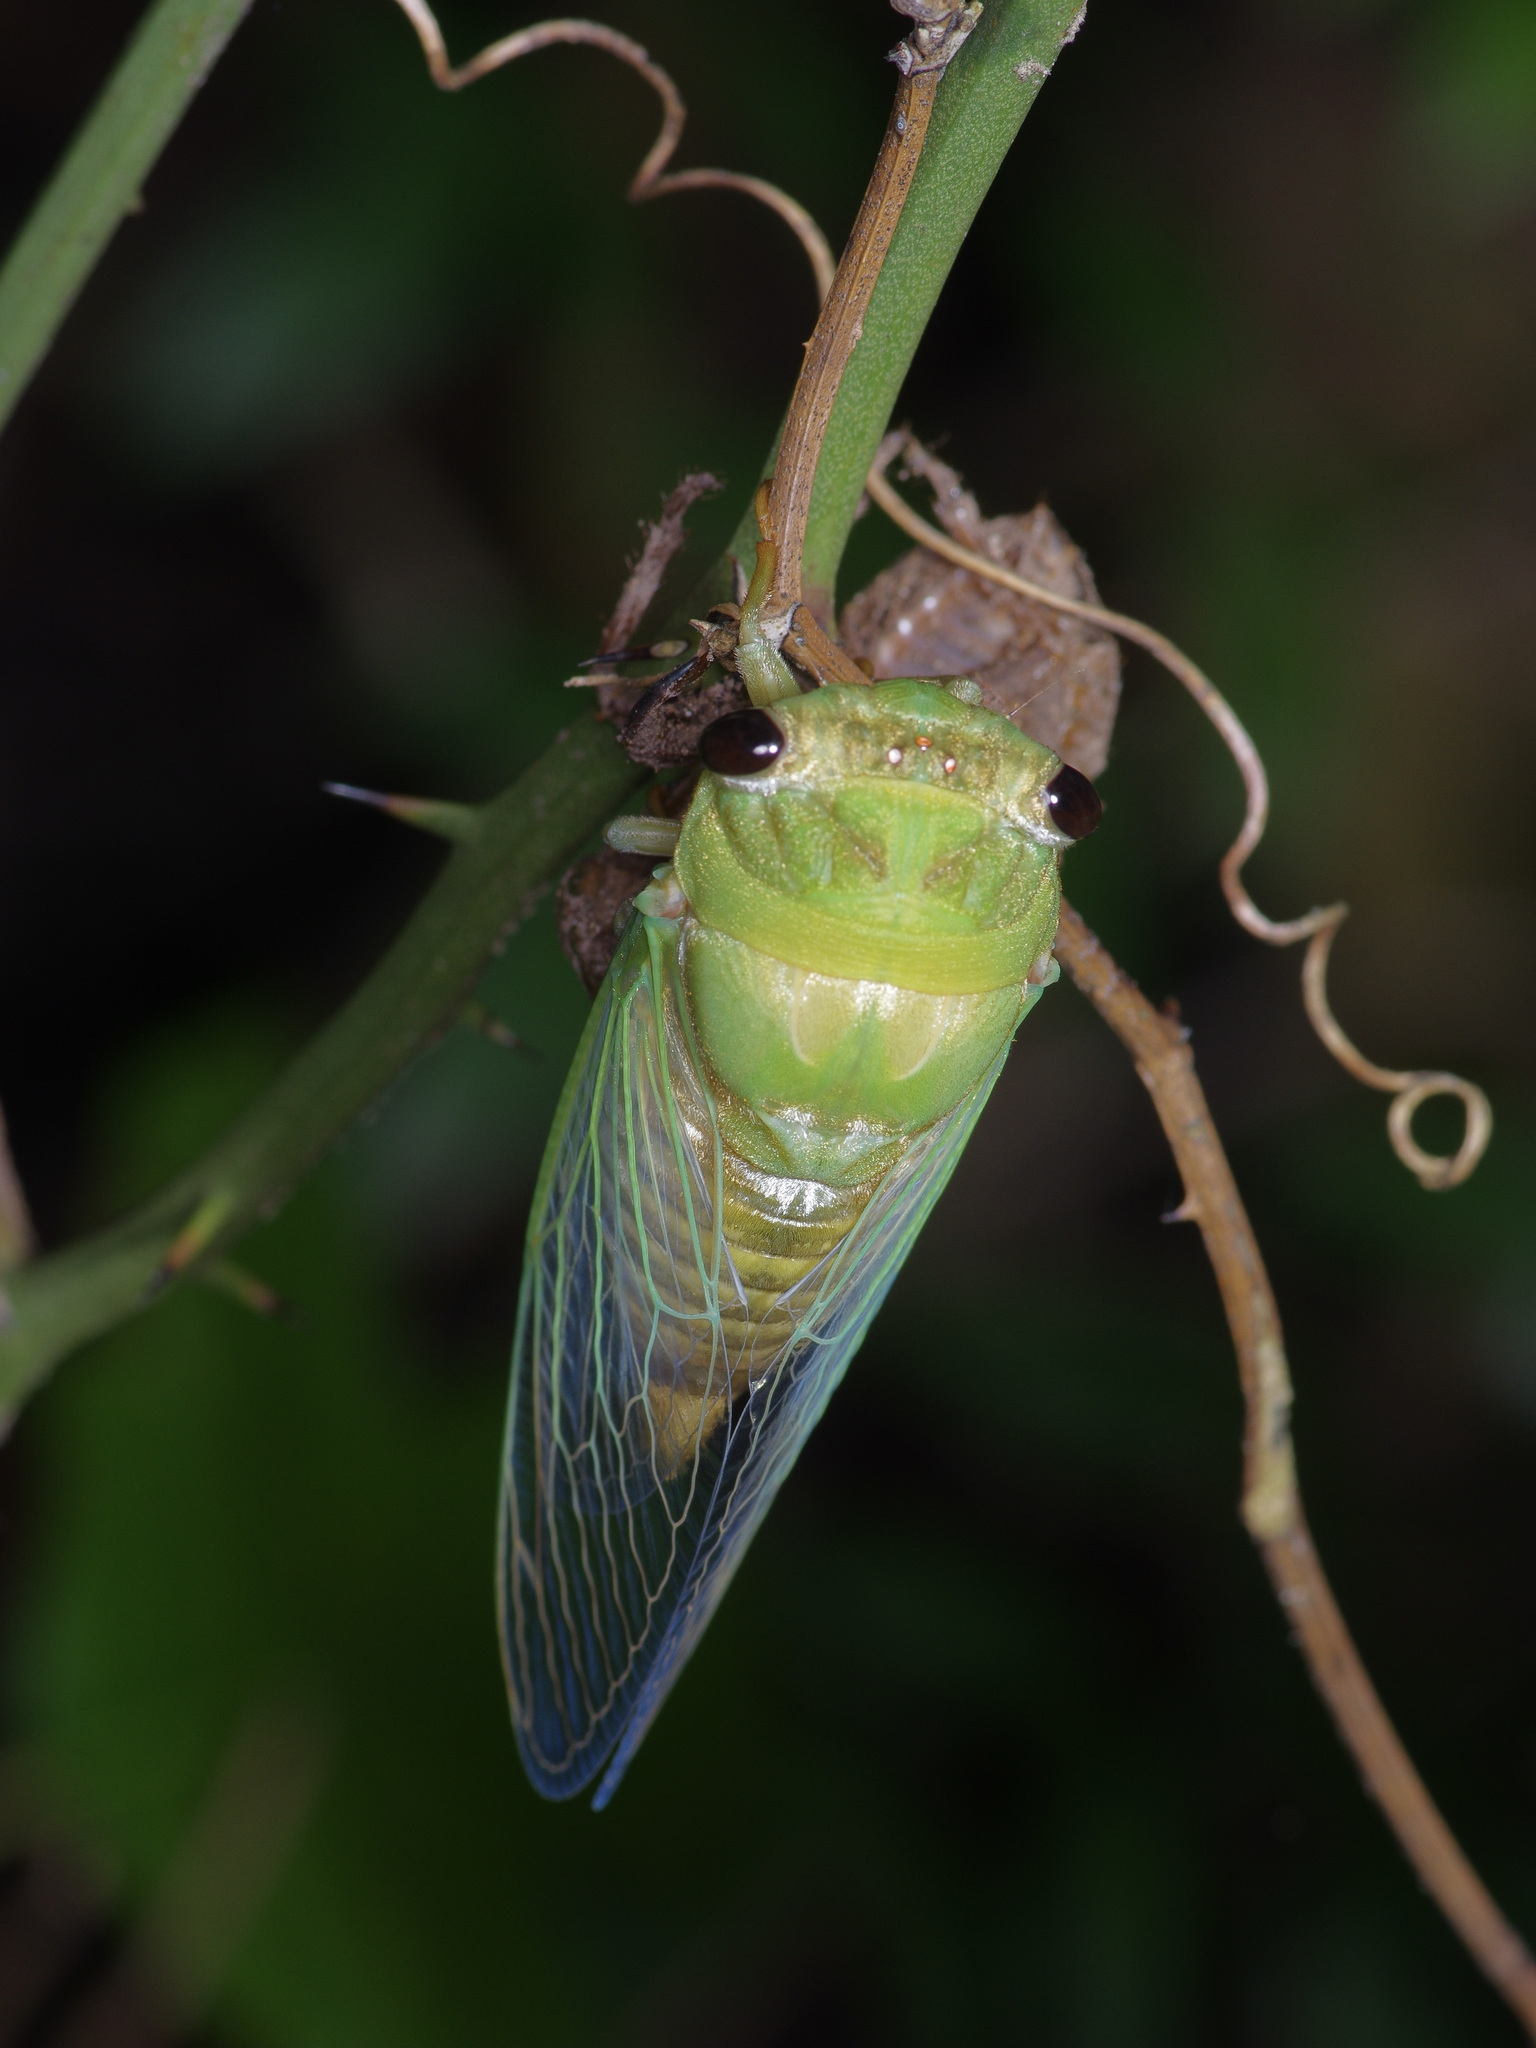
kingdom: Animalia
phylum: Arthropoda
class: Insecta
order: Hemiptera
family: Cicadidae
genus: Neotibicen
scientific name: Neotibicen superbus
